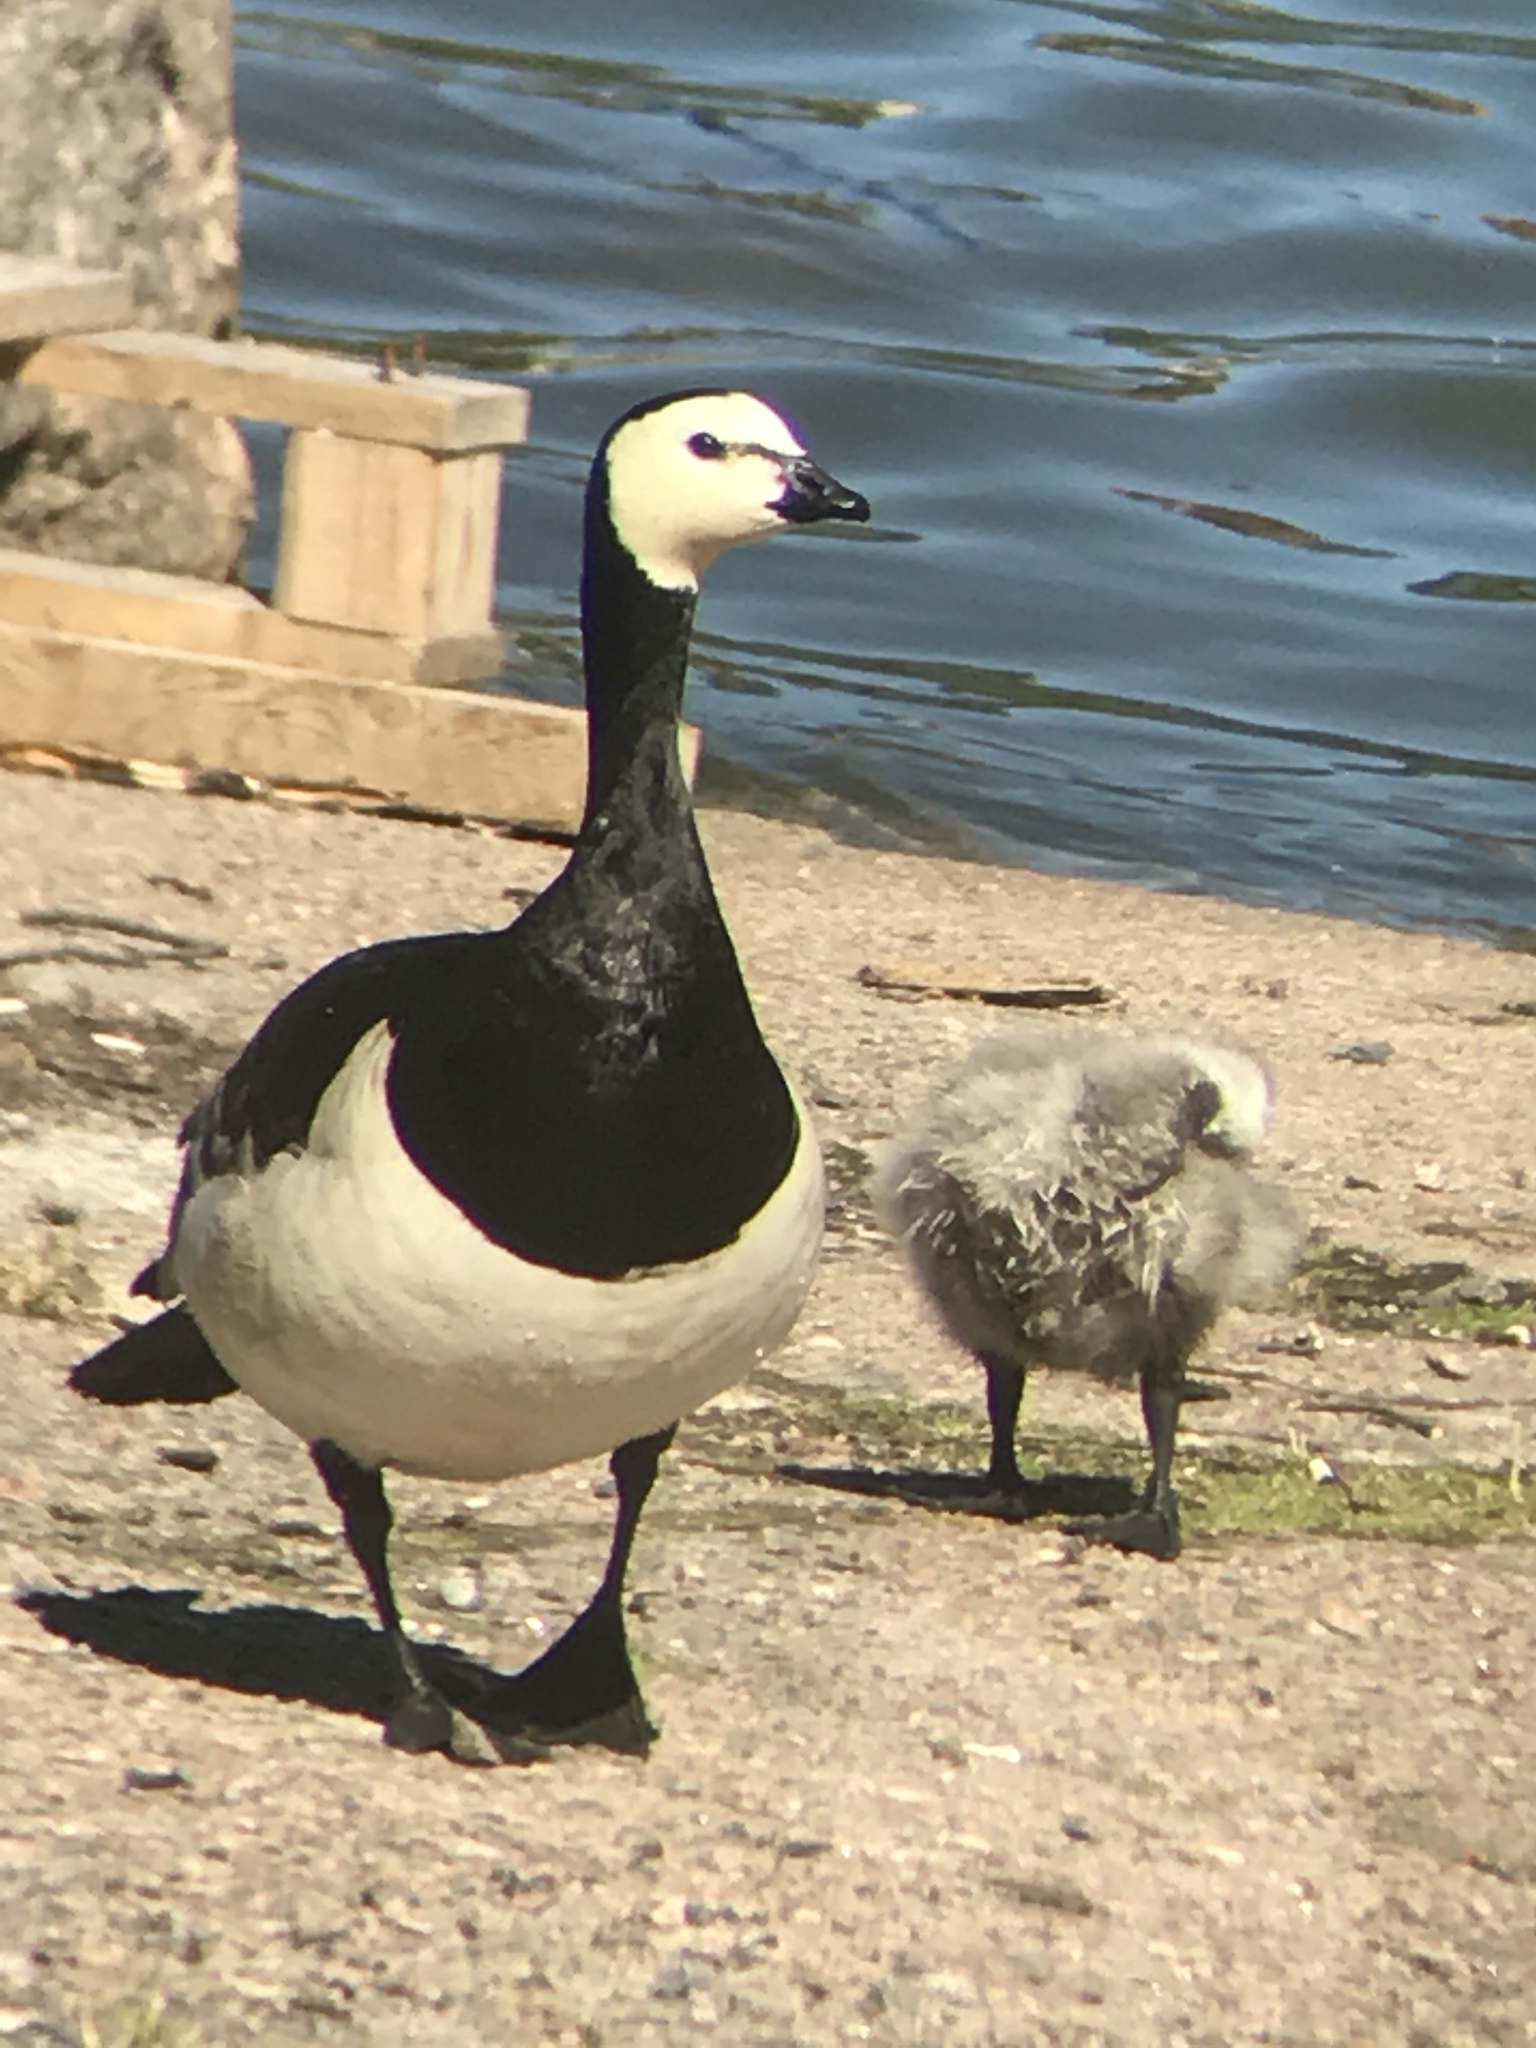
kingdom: Animalia
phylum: Chordata
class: Aves
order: Anseriformes
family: Anatidae
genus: Branta
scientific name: Branta leucopsis
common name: Barnacle goose
